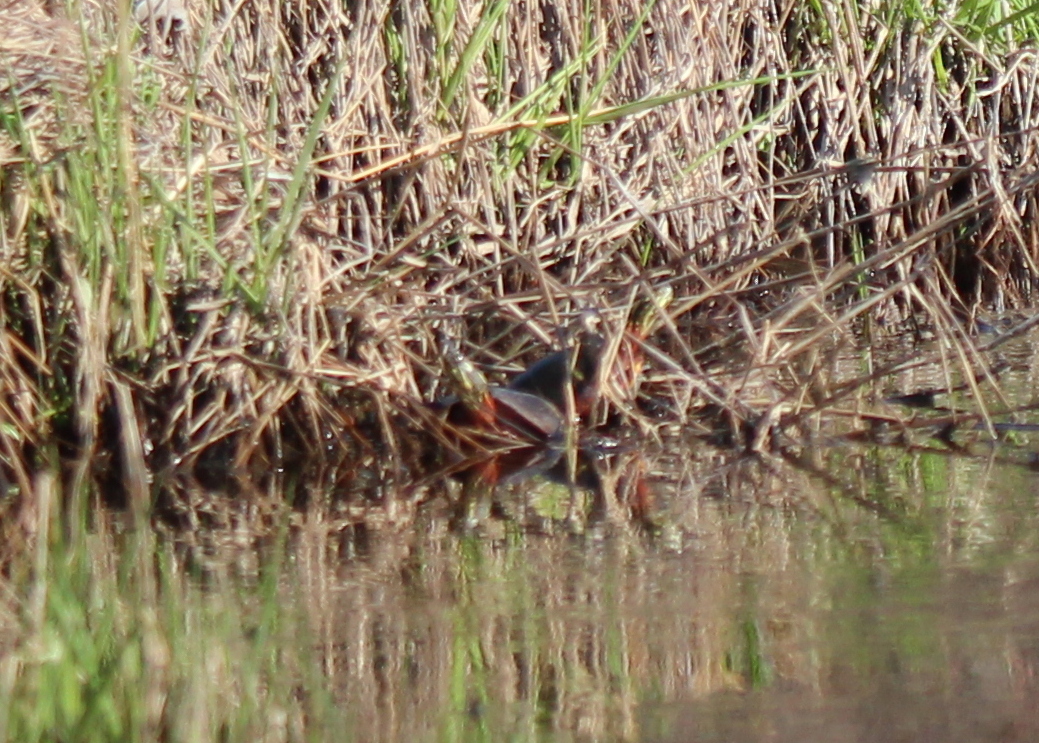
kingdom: Animalia
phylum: Chordata
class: Testudines
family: Emydidae
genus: Chrysemys
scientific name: Chrysemys picta
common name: Painted turtle
